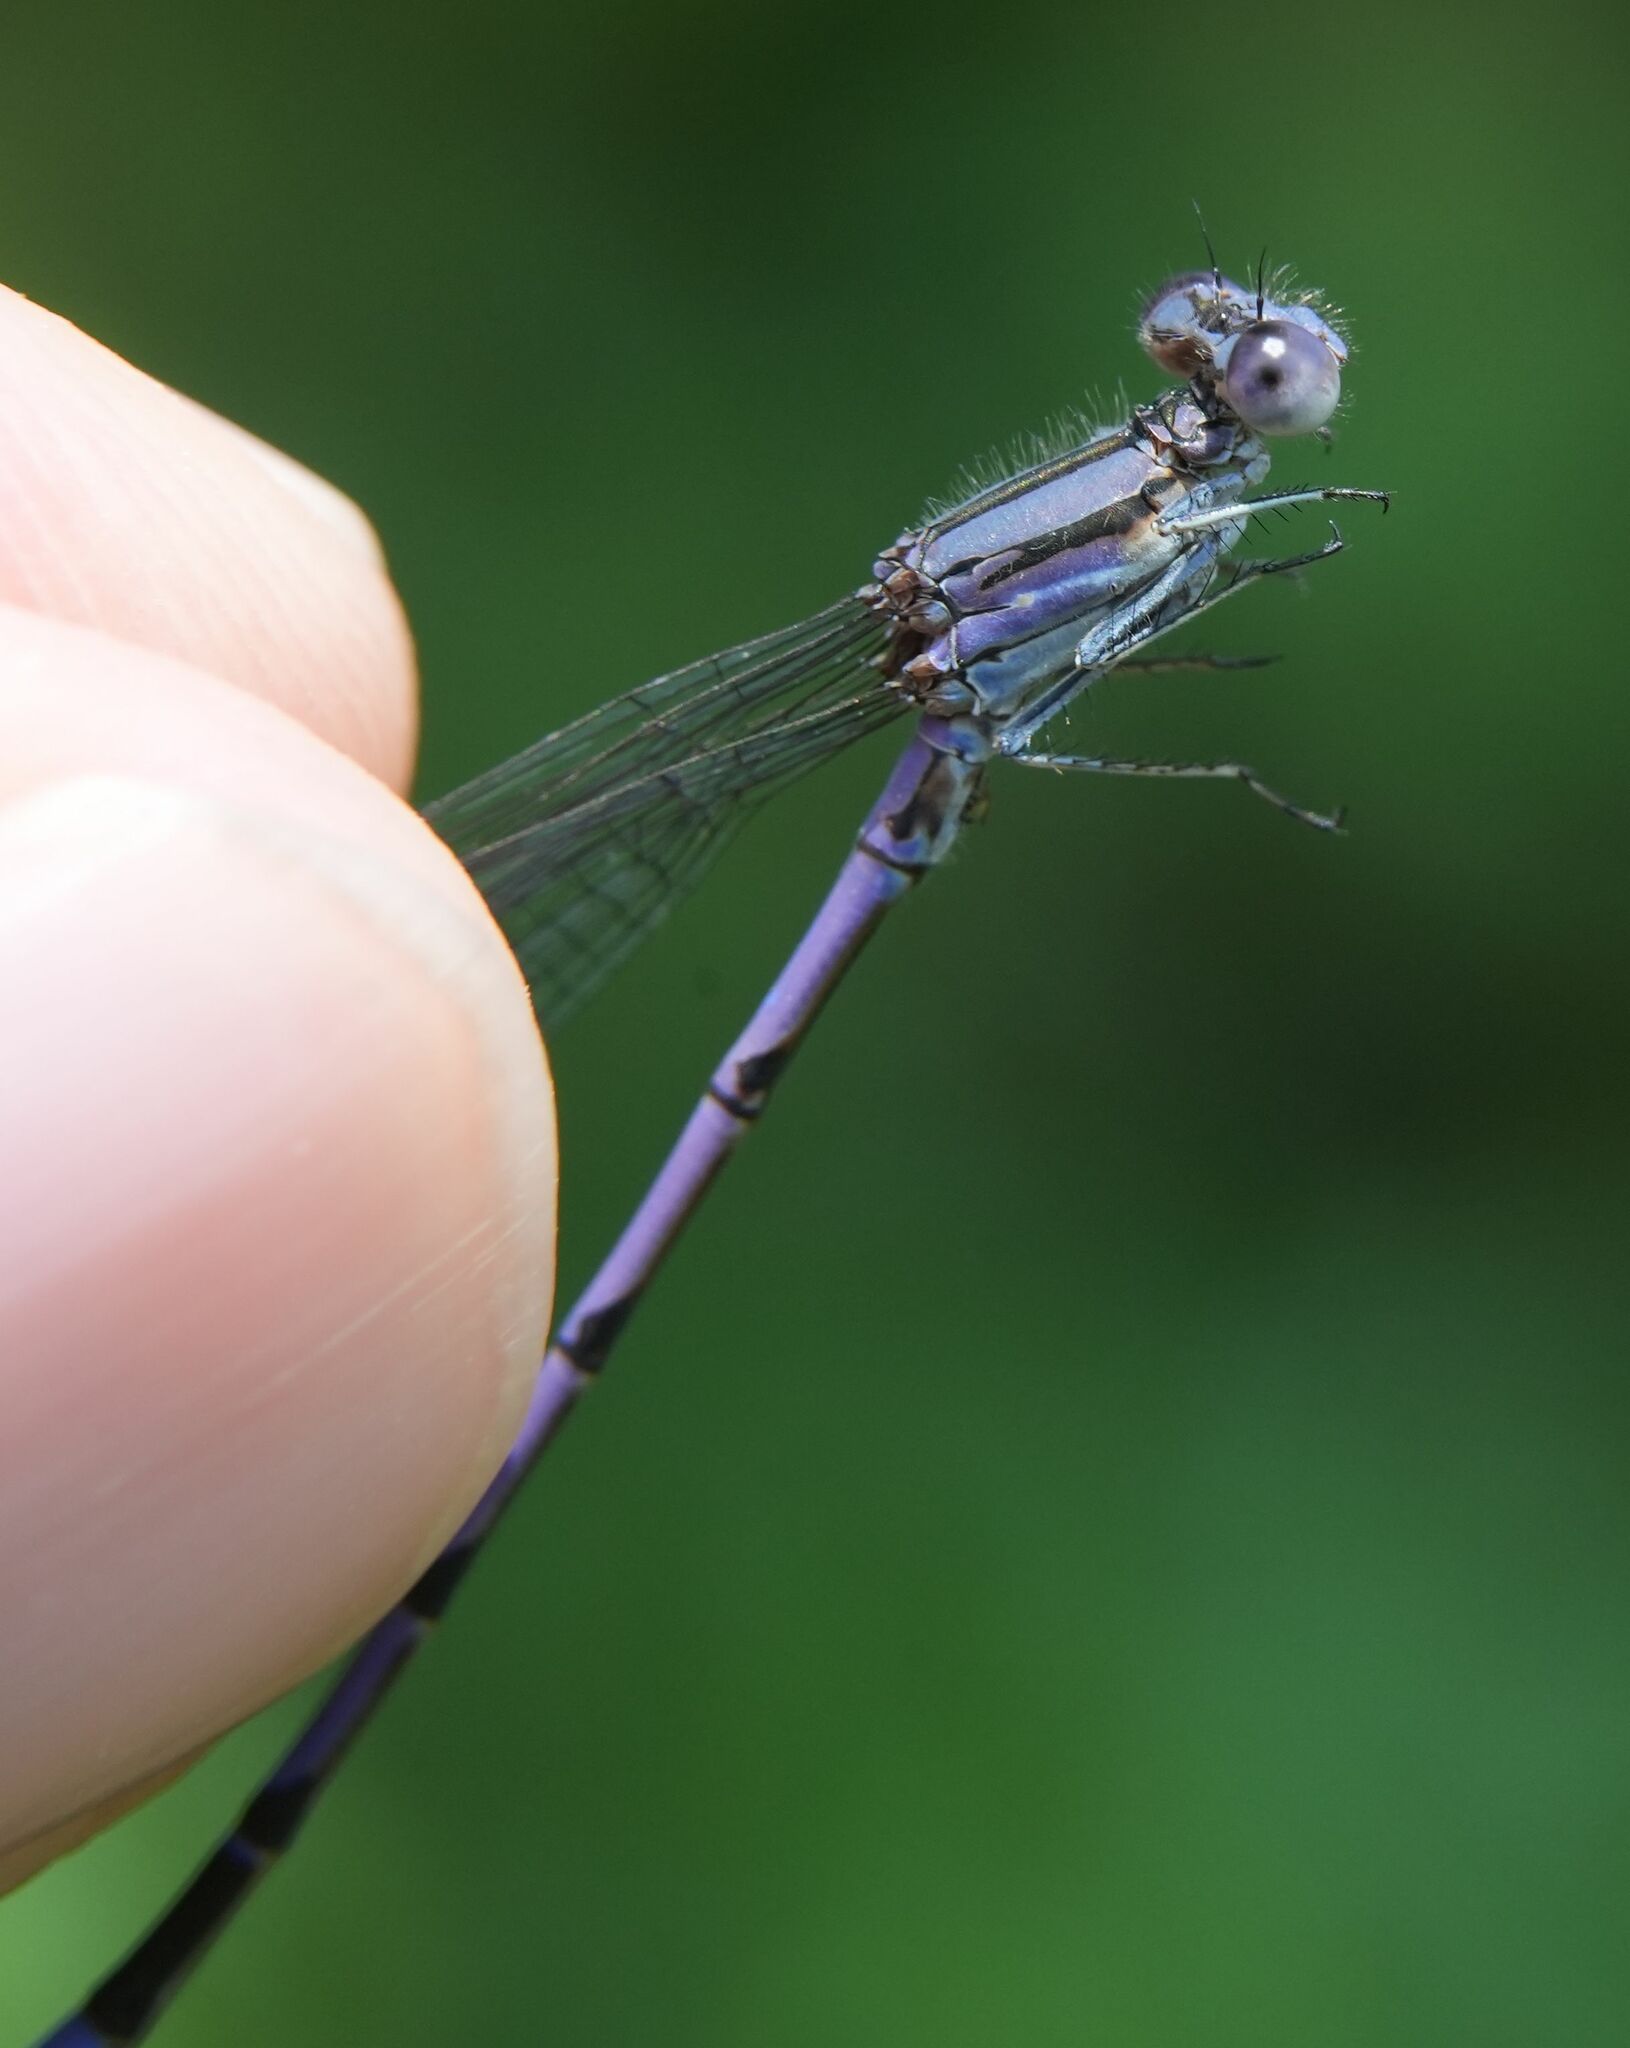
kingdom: Animalia
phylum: Arthropoda
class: Insecta
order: Odonata
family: Coenagrionidae
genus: Argia
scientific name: Argia fumipennis
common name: Variable dancer
